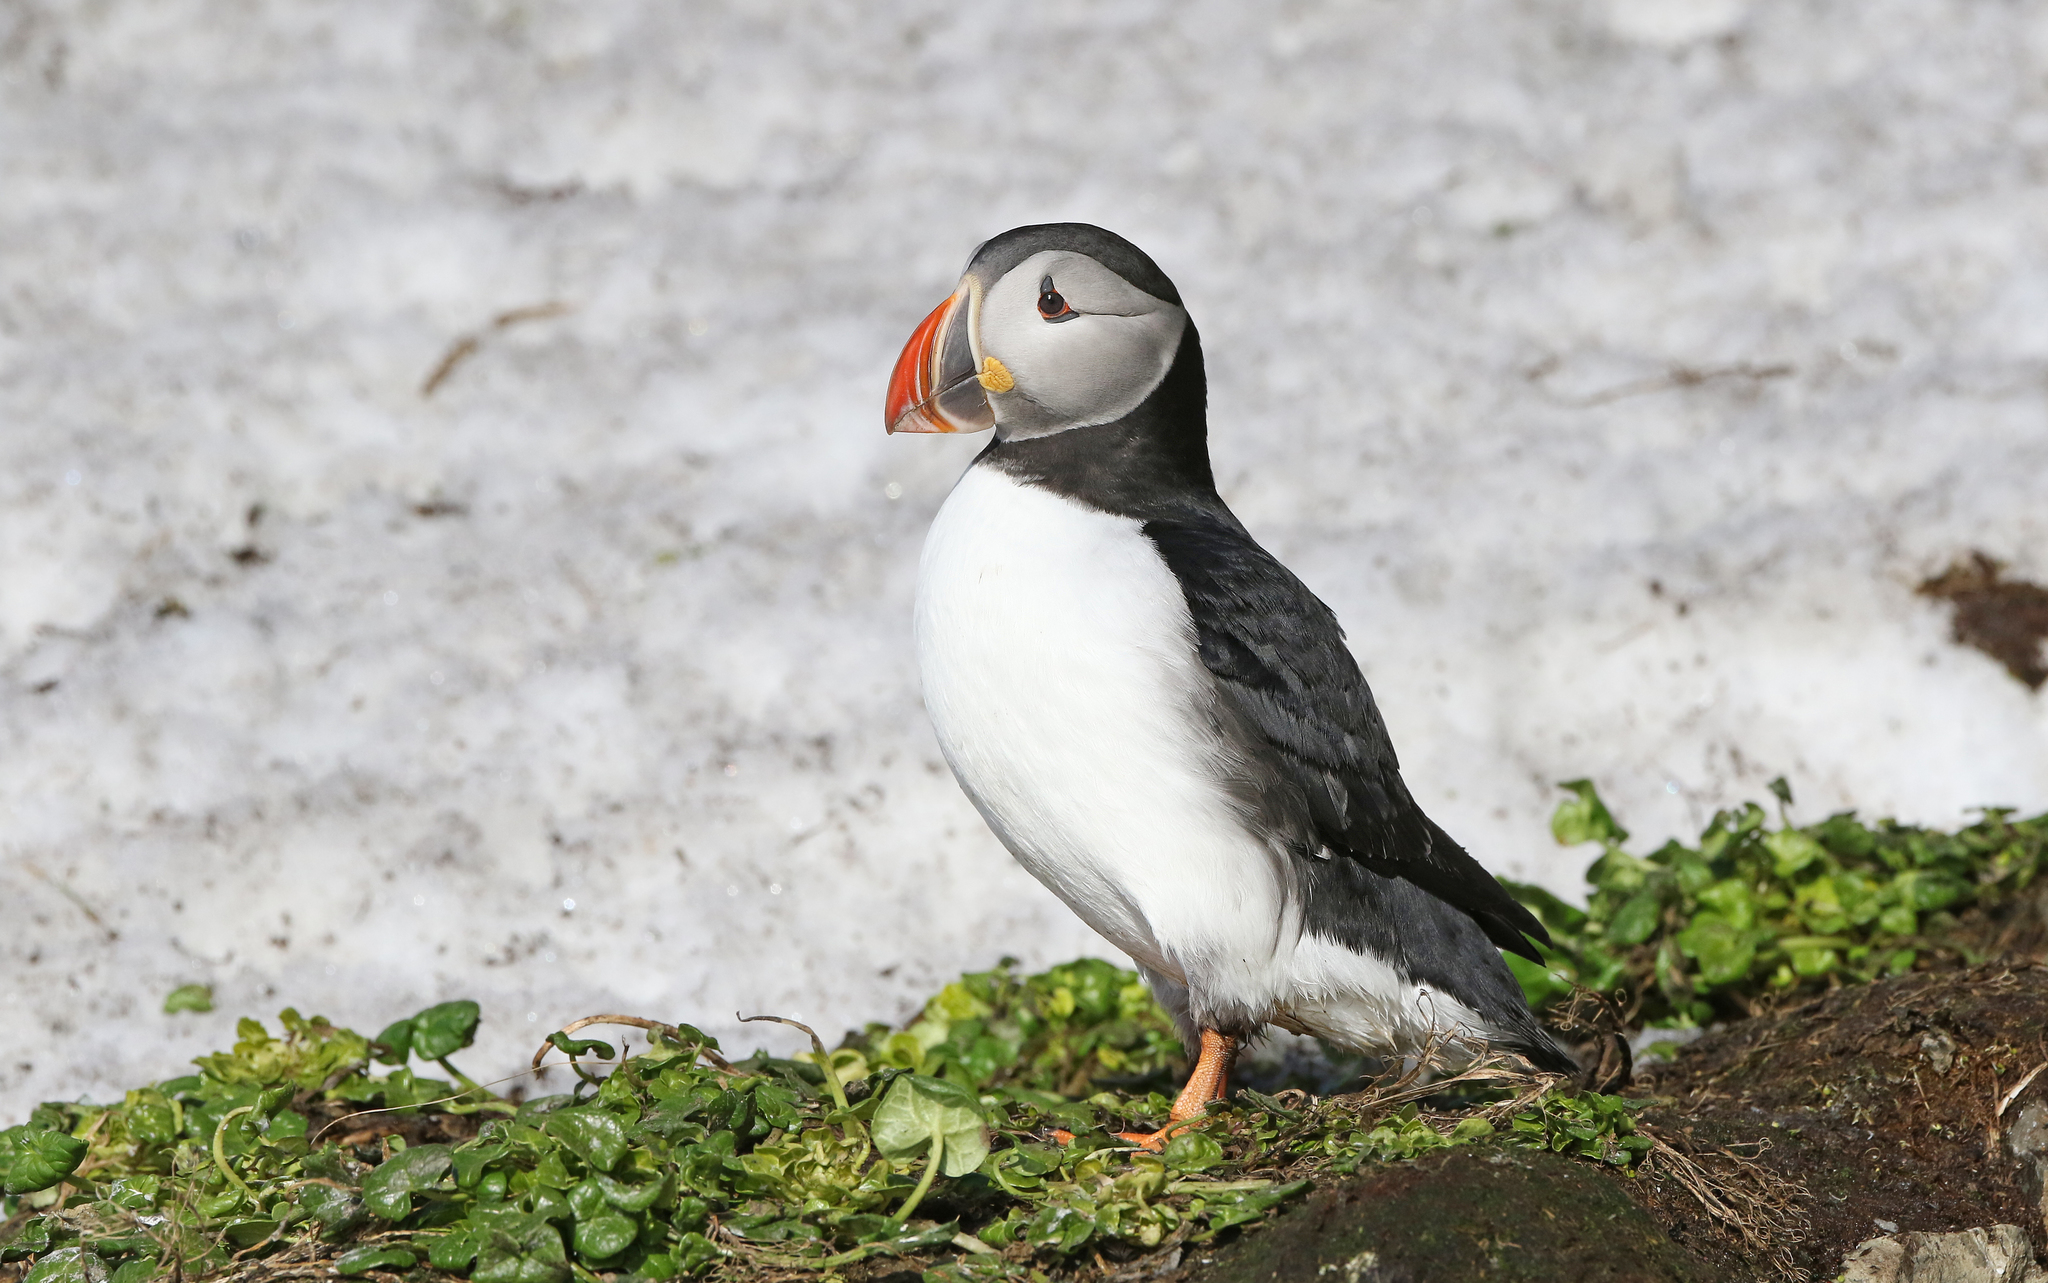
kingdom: Animalia
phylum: Chordata
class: Aves
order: Charadriiformes
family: Alcidae
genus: Fratercula
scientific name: Fratercula arctica
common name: Atlantic puffin
